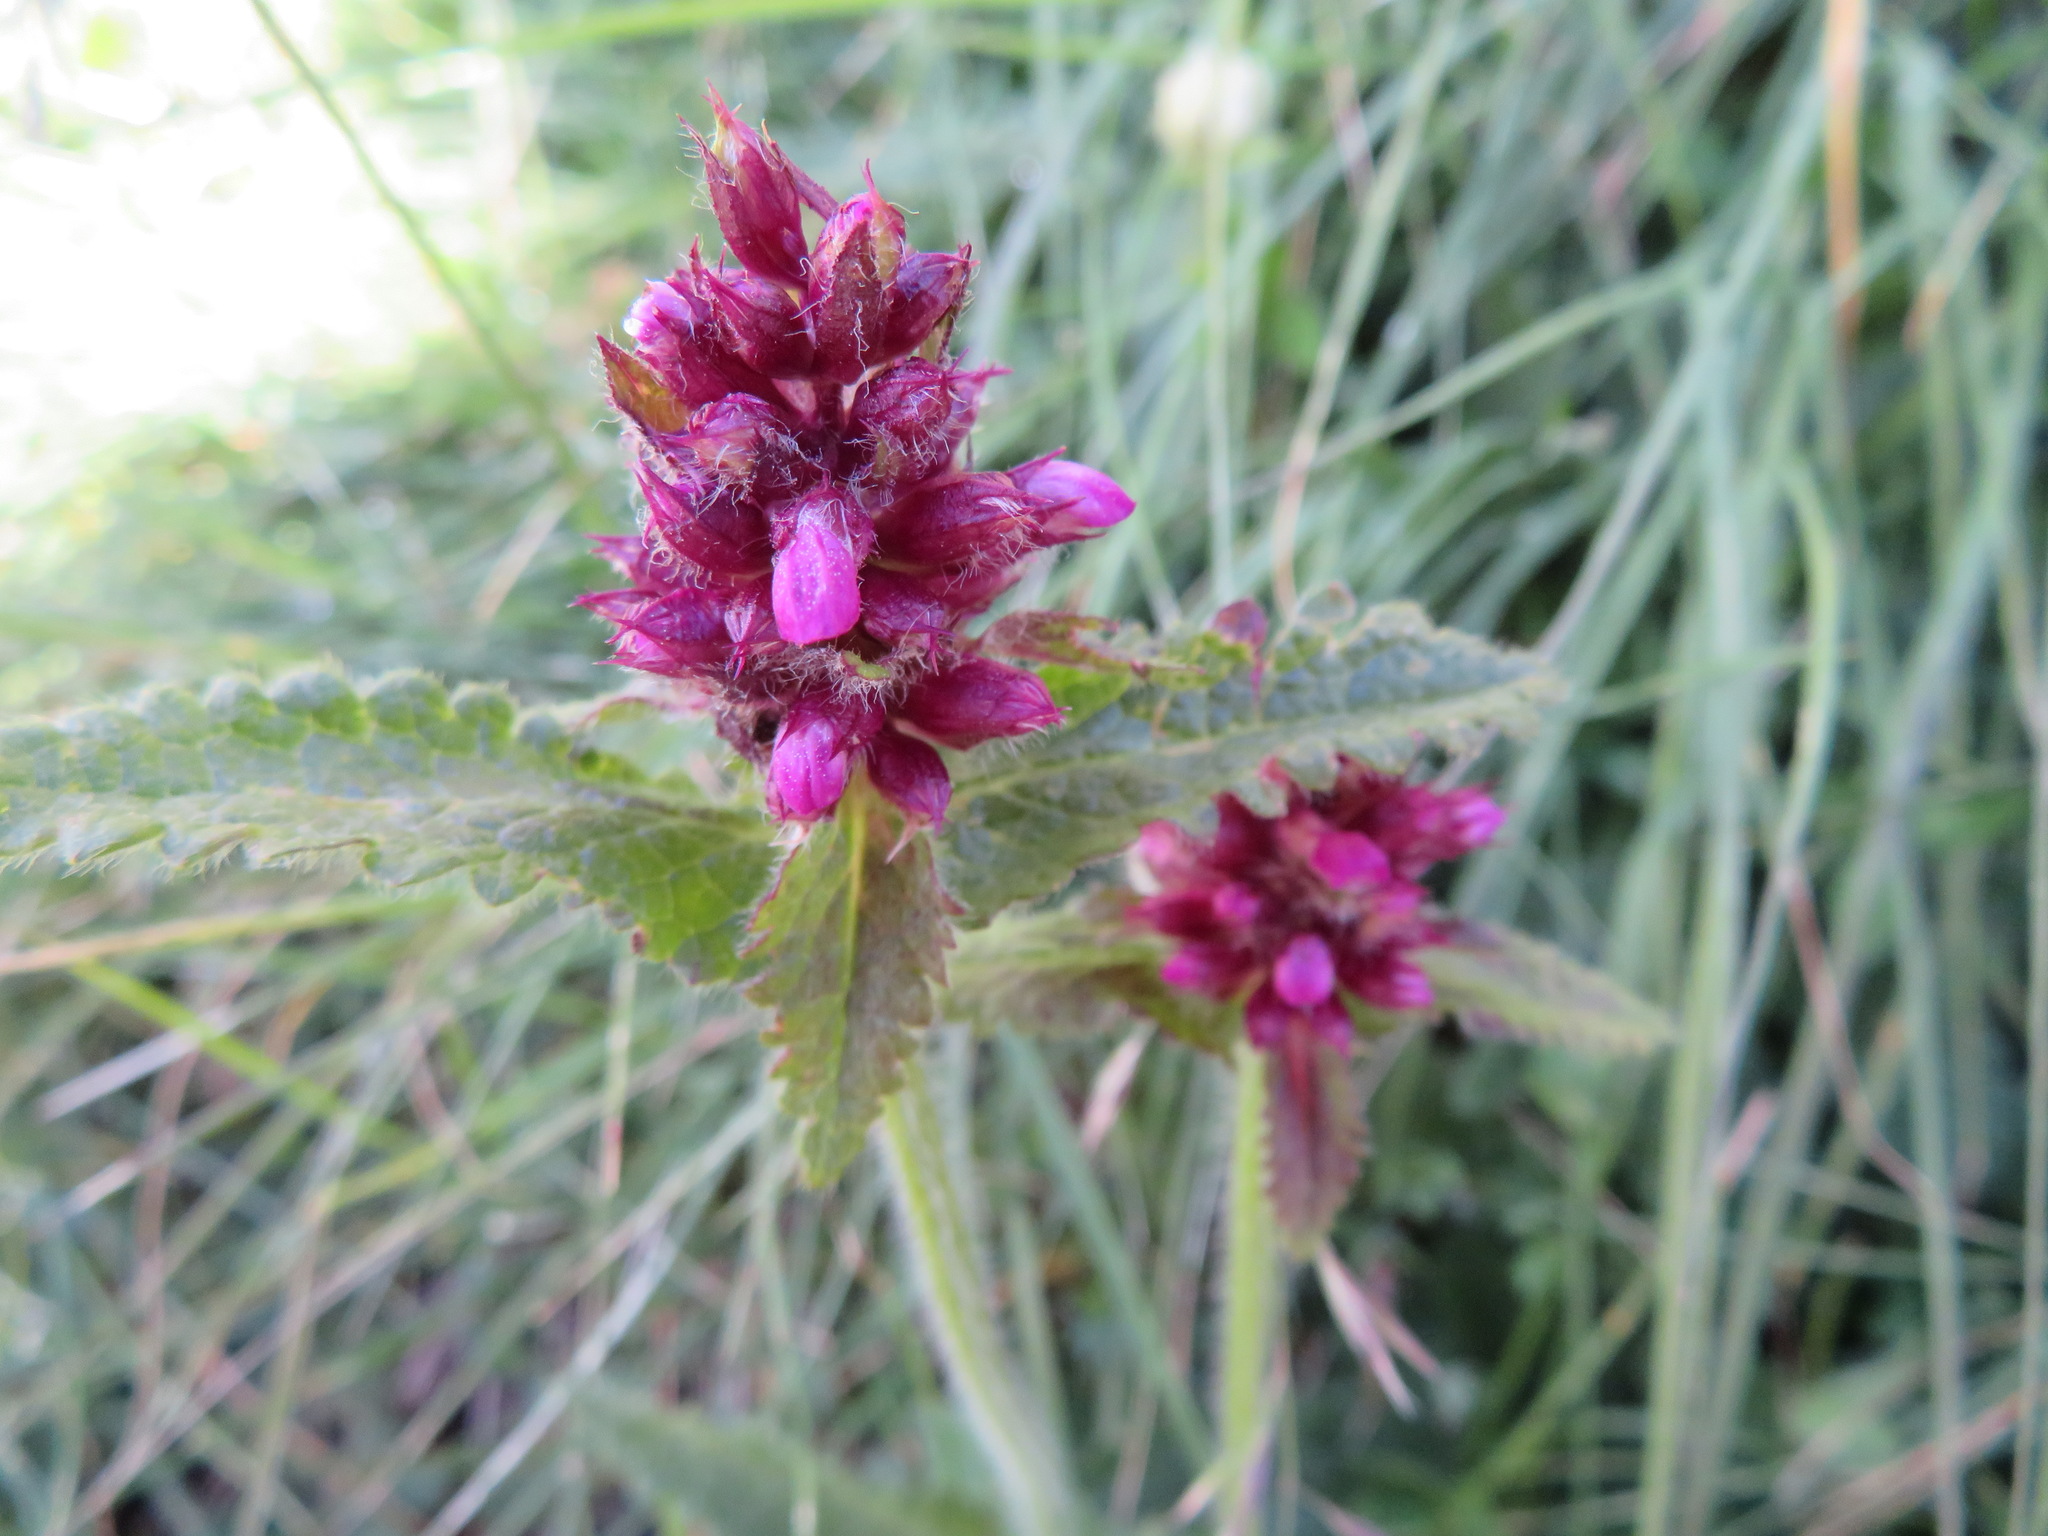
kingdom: Plantae
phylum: Tracheophyta
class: Magnoliopsida
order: Lamiales
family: Lamiaceae
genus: Betonica
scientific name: Betonica hirsuta
